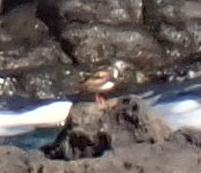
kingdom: Animalia
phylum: Chordata
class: Aves
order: Charadriiformes
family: Scolopacidae
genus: Arenaria
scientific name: Arenaria interpres
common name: Ruddy turnstone
